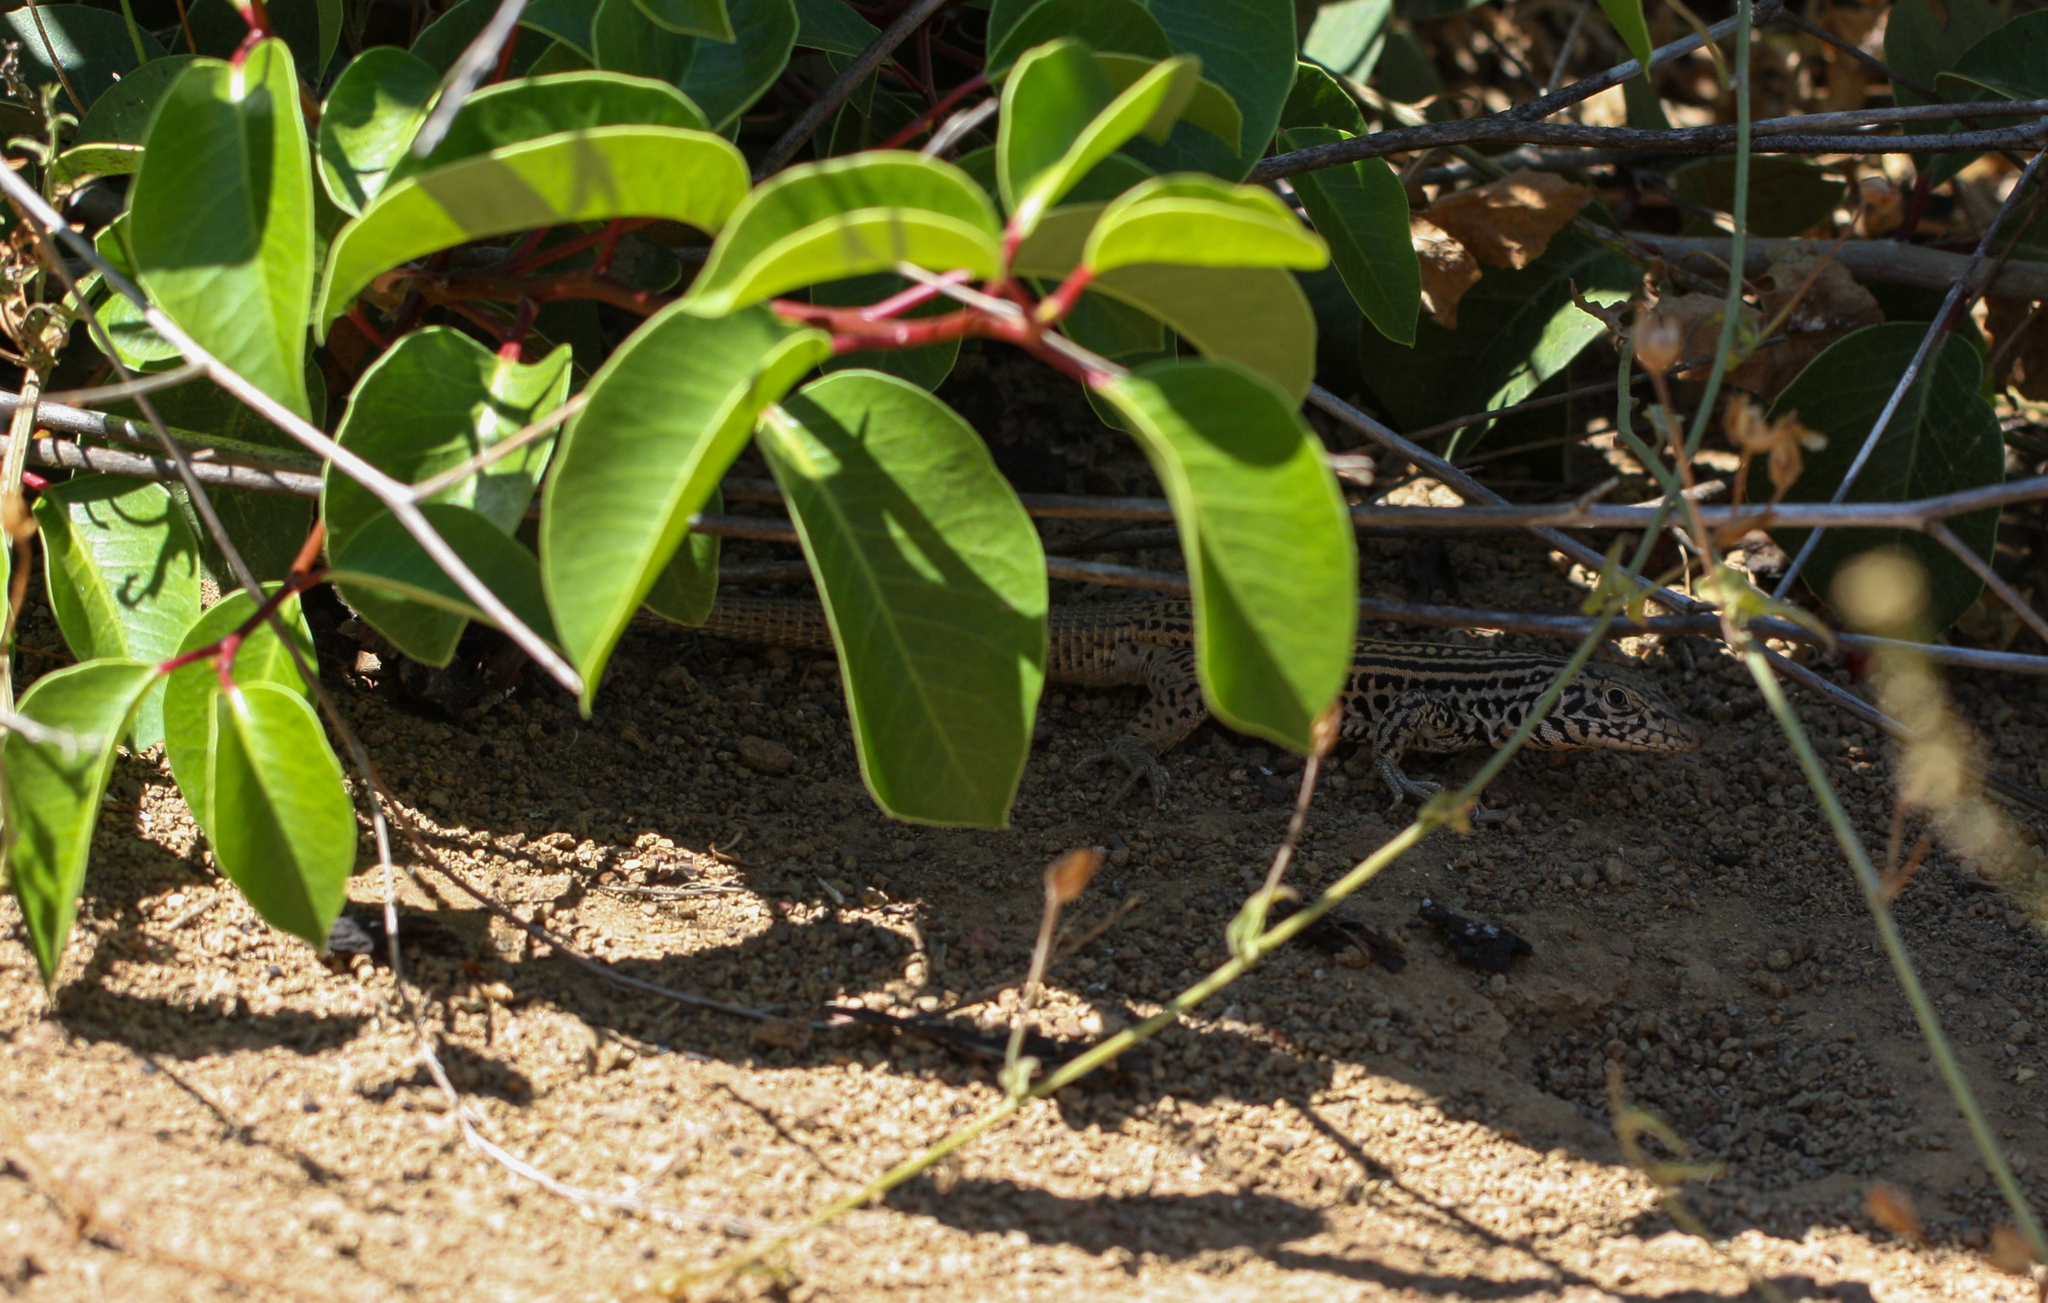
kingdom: Animalia
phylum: Chordata
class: Squamata
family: Teiidae
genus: Aspidoscelis
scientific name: Aspidoscelis tigris
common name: Tiger whiptail
